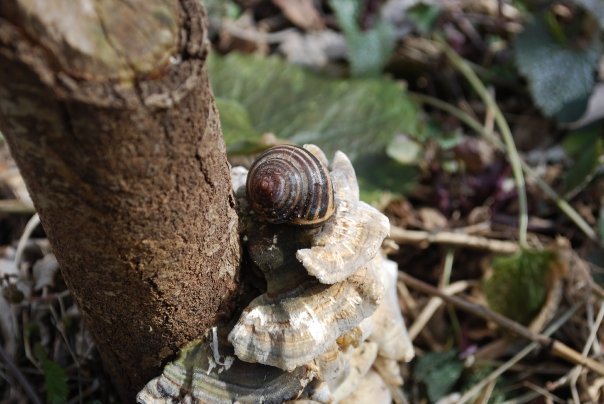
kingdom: Animalia
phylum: Mollusca
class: Gastropoda
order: Stylommatophora
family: Helicidae
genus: Cepaea
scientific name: Cepaea nemoralis
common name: Grovesnail
